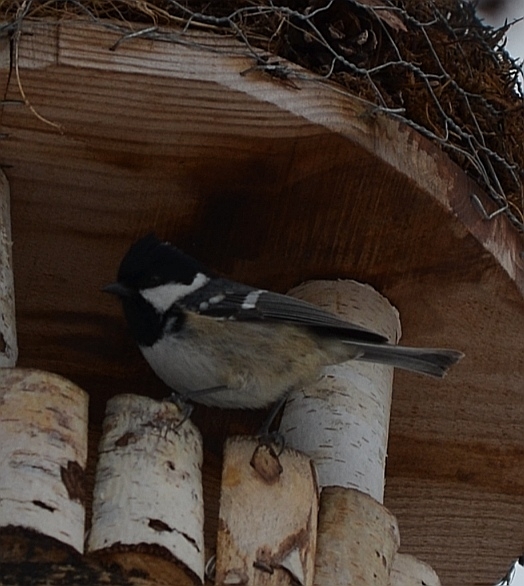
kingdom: Animalia
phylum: Chordata
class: Aves
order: Passeriformes
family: Paridae
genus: Periparus
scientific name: Periparus ater
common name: Coal tit
